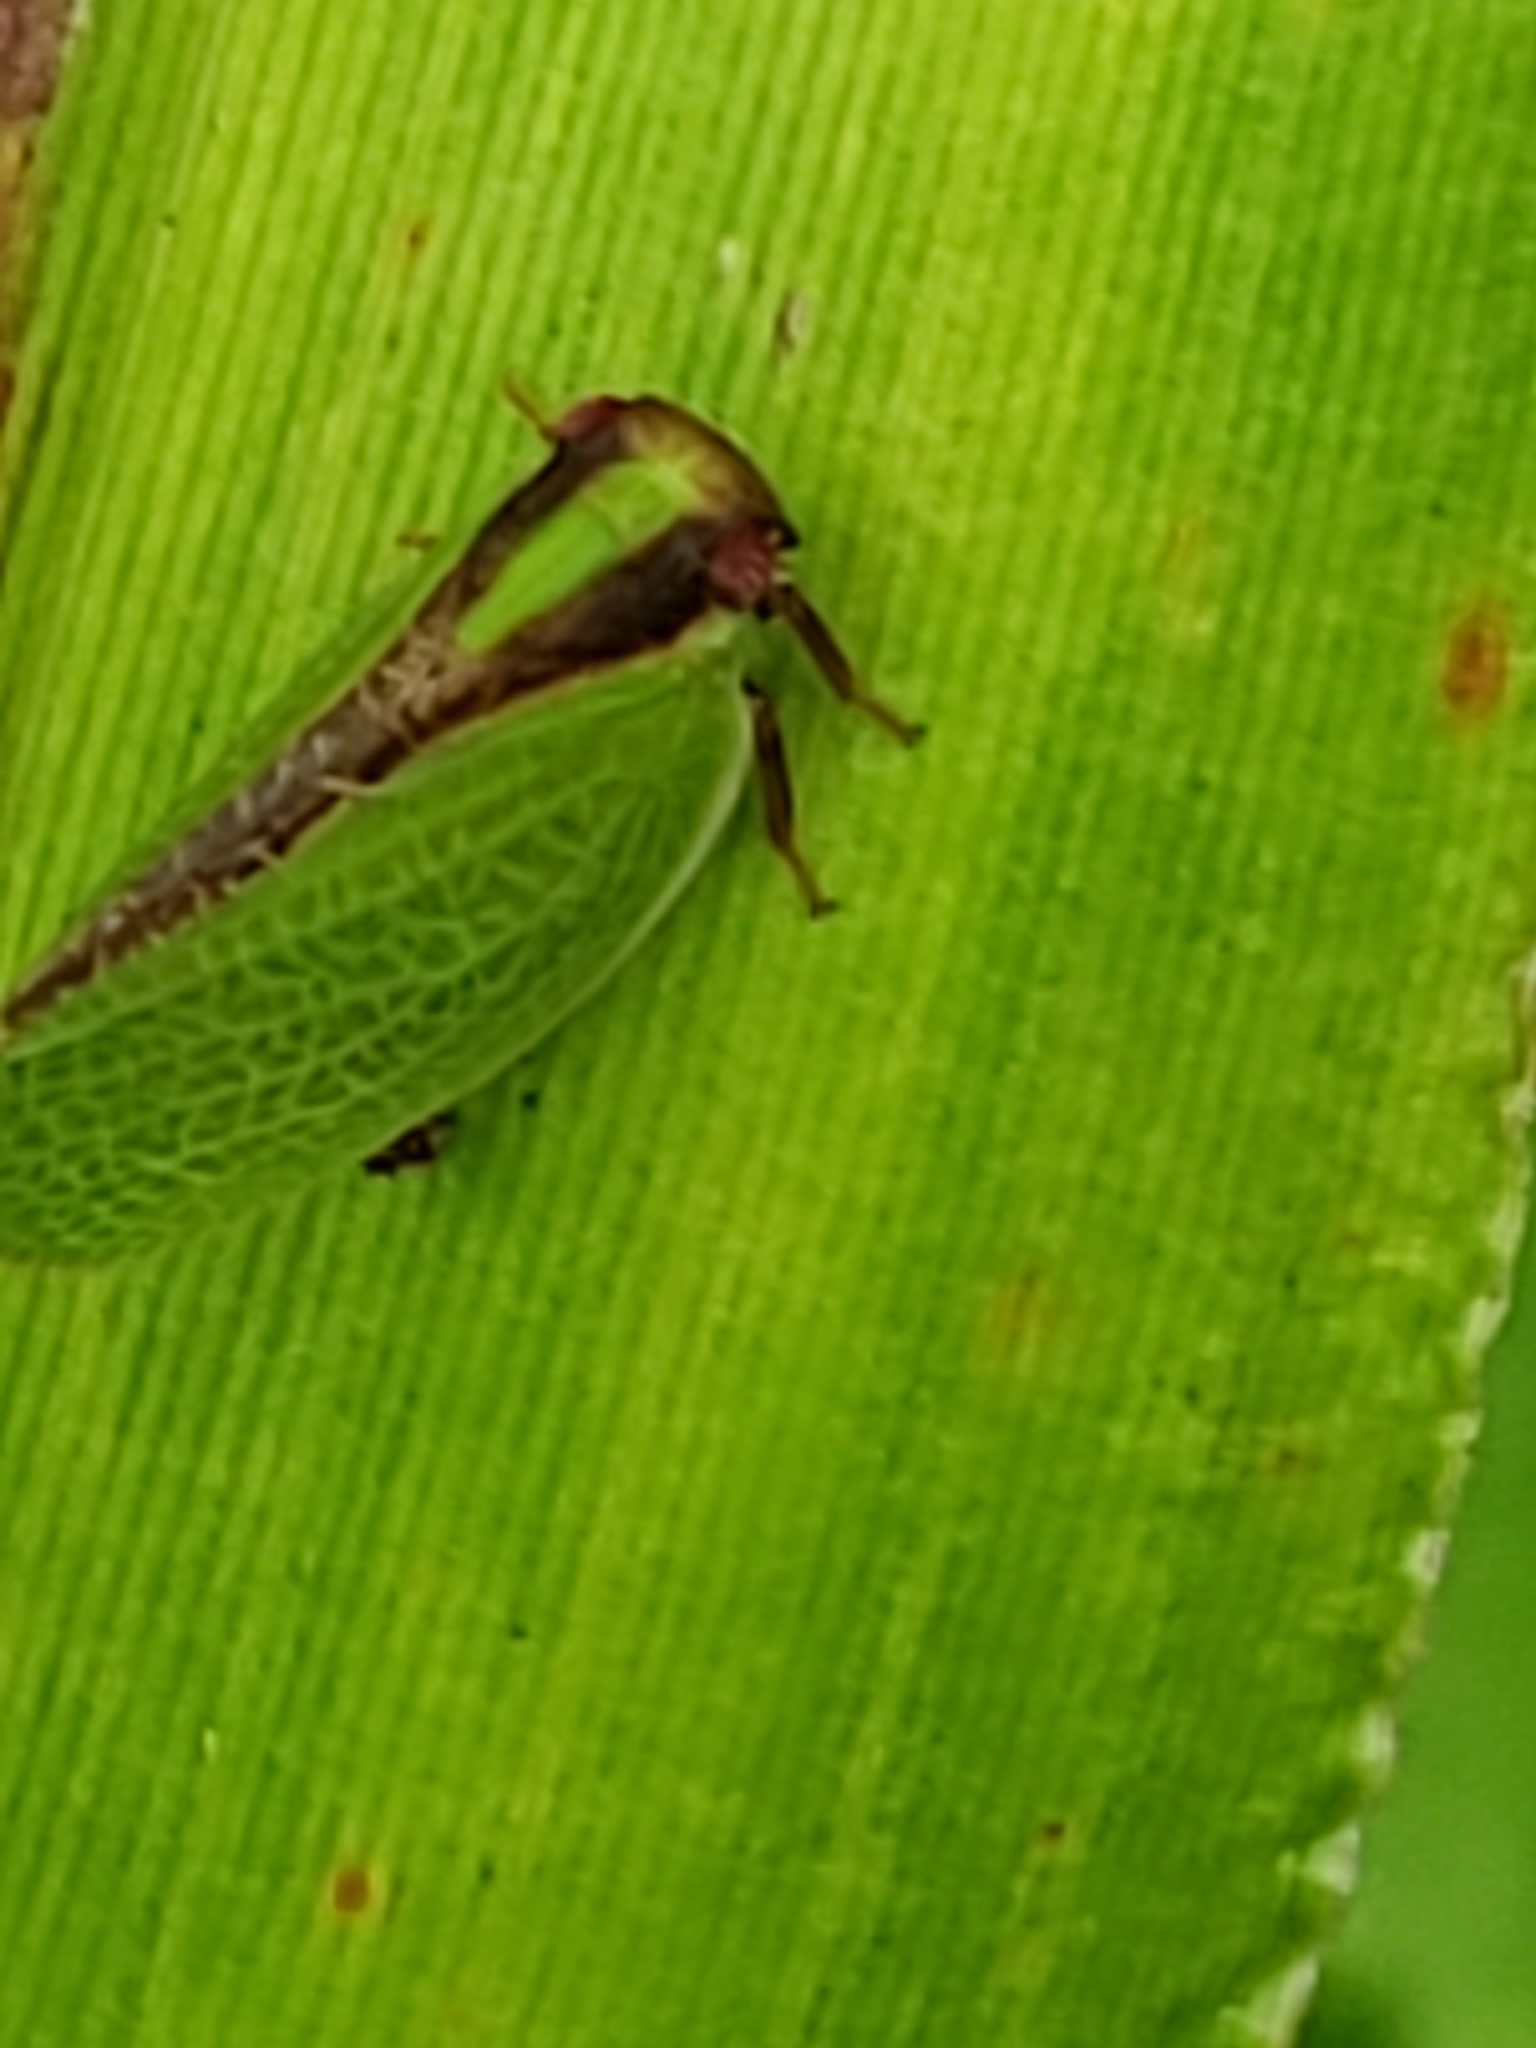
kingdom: Animalia
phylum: Arthropoda
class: Insecta
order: Hemiptera
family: Acanaloniidae
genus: Acanalonia
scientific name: Acanalonia bivittata
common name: Two-striped planthopper
